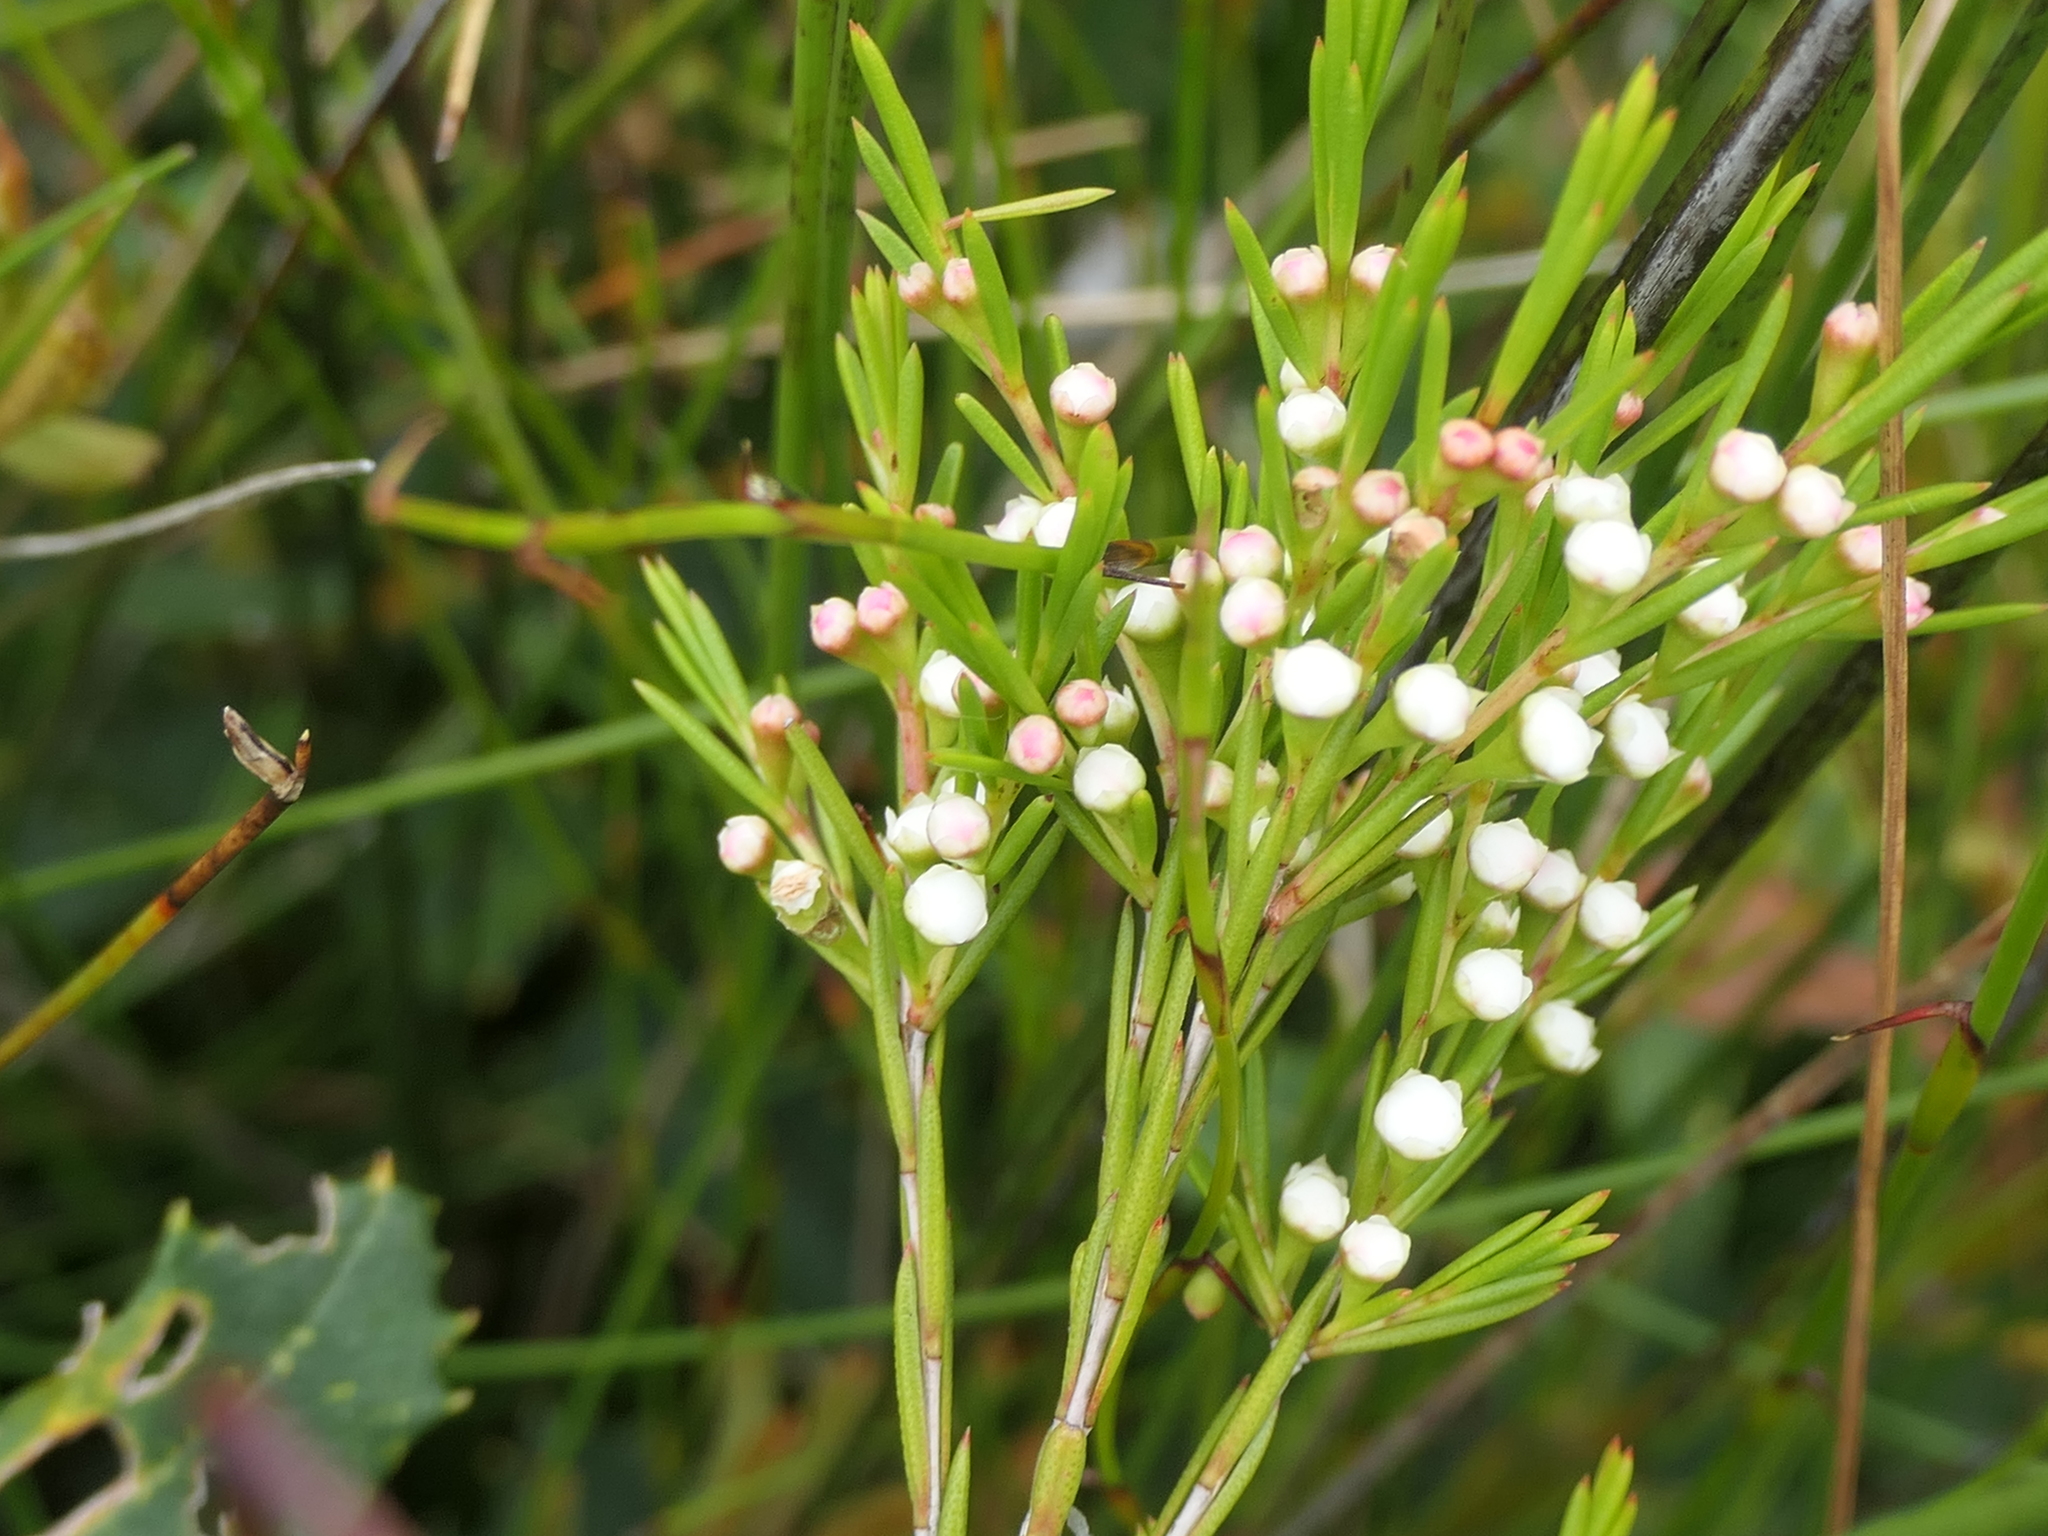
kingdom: Plantae
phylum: Tracheophyta
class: Magnoliopsida
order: Myrtales
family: Myrtaceae
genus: Baeckea
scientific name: Baeckea linifolia
